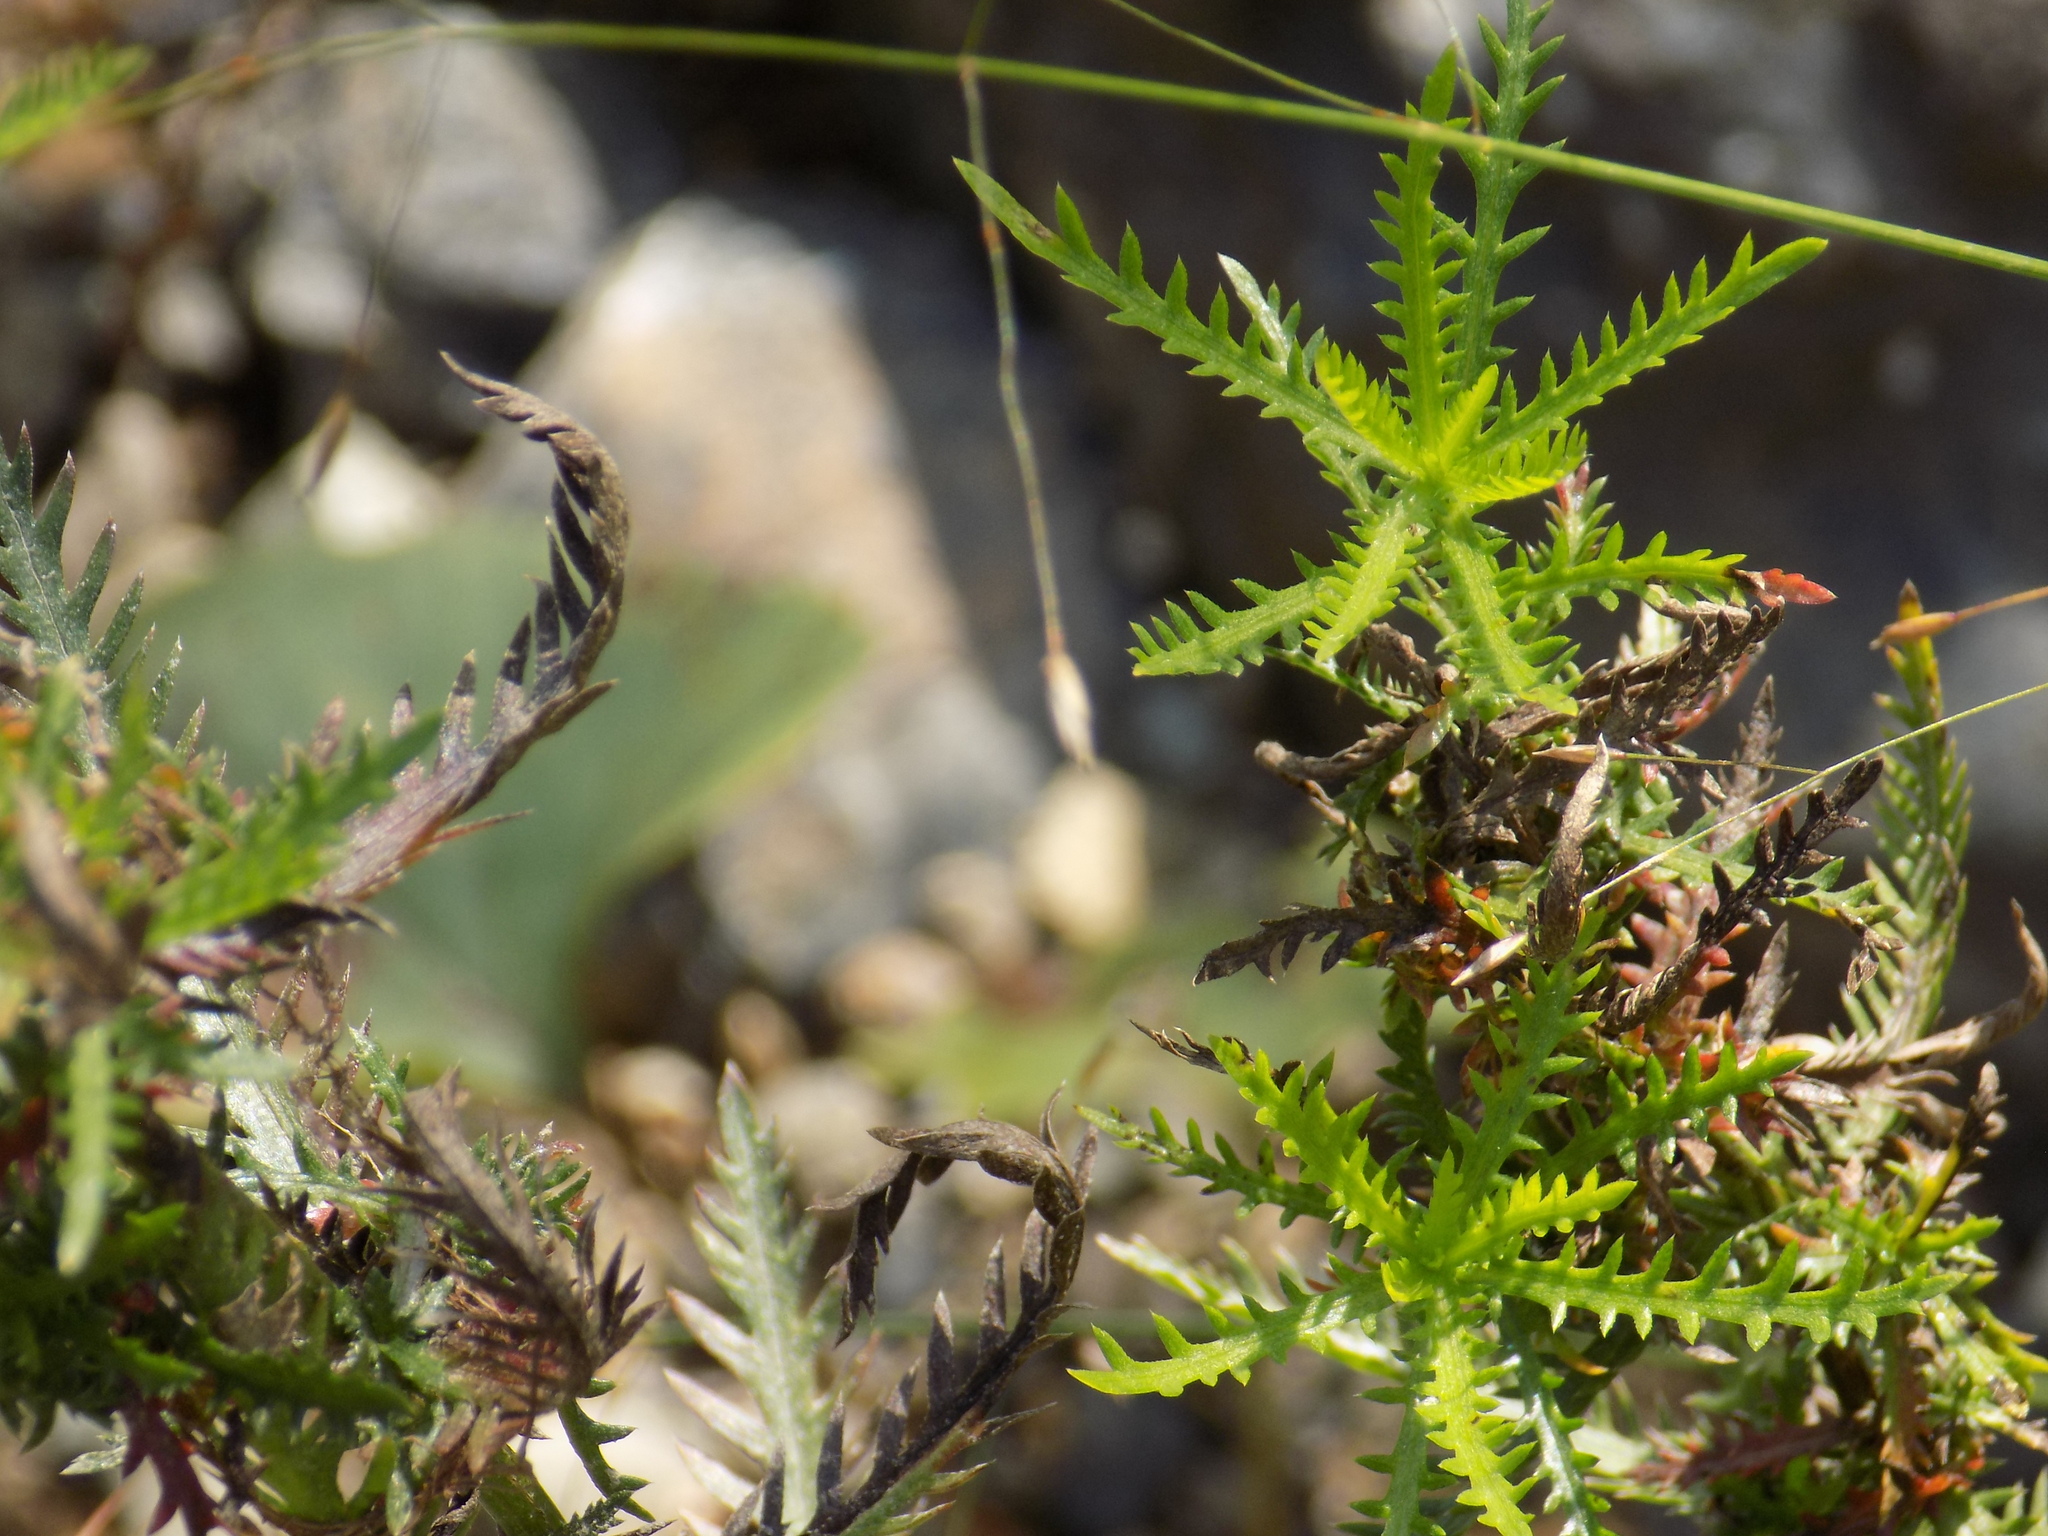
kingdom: Plantae
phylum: Tracheophyta
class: Magnoliopsida
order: Asterales
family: Asteraceae
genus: Achillea
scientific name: Achillea impatiens
